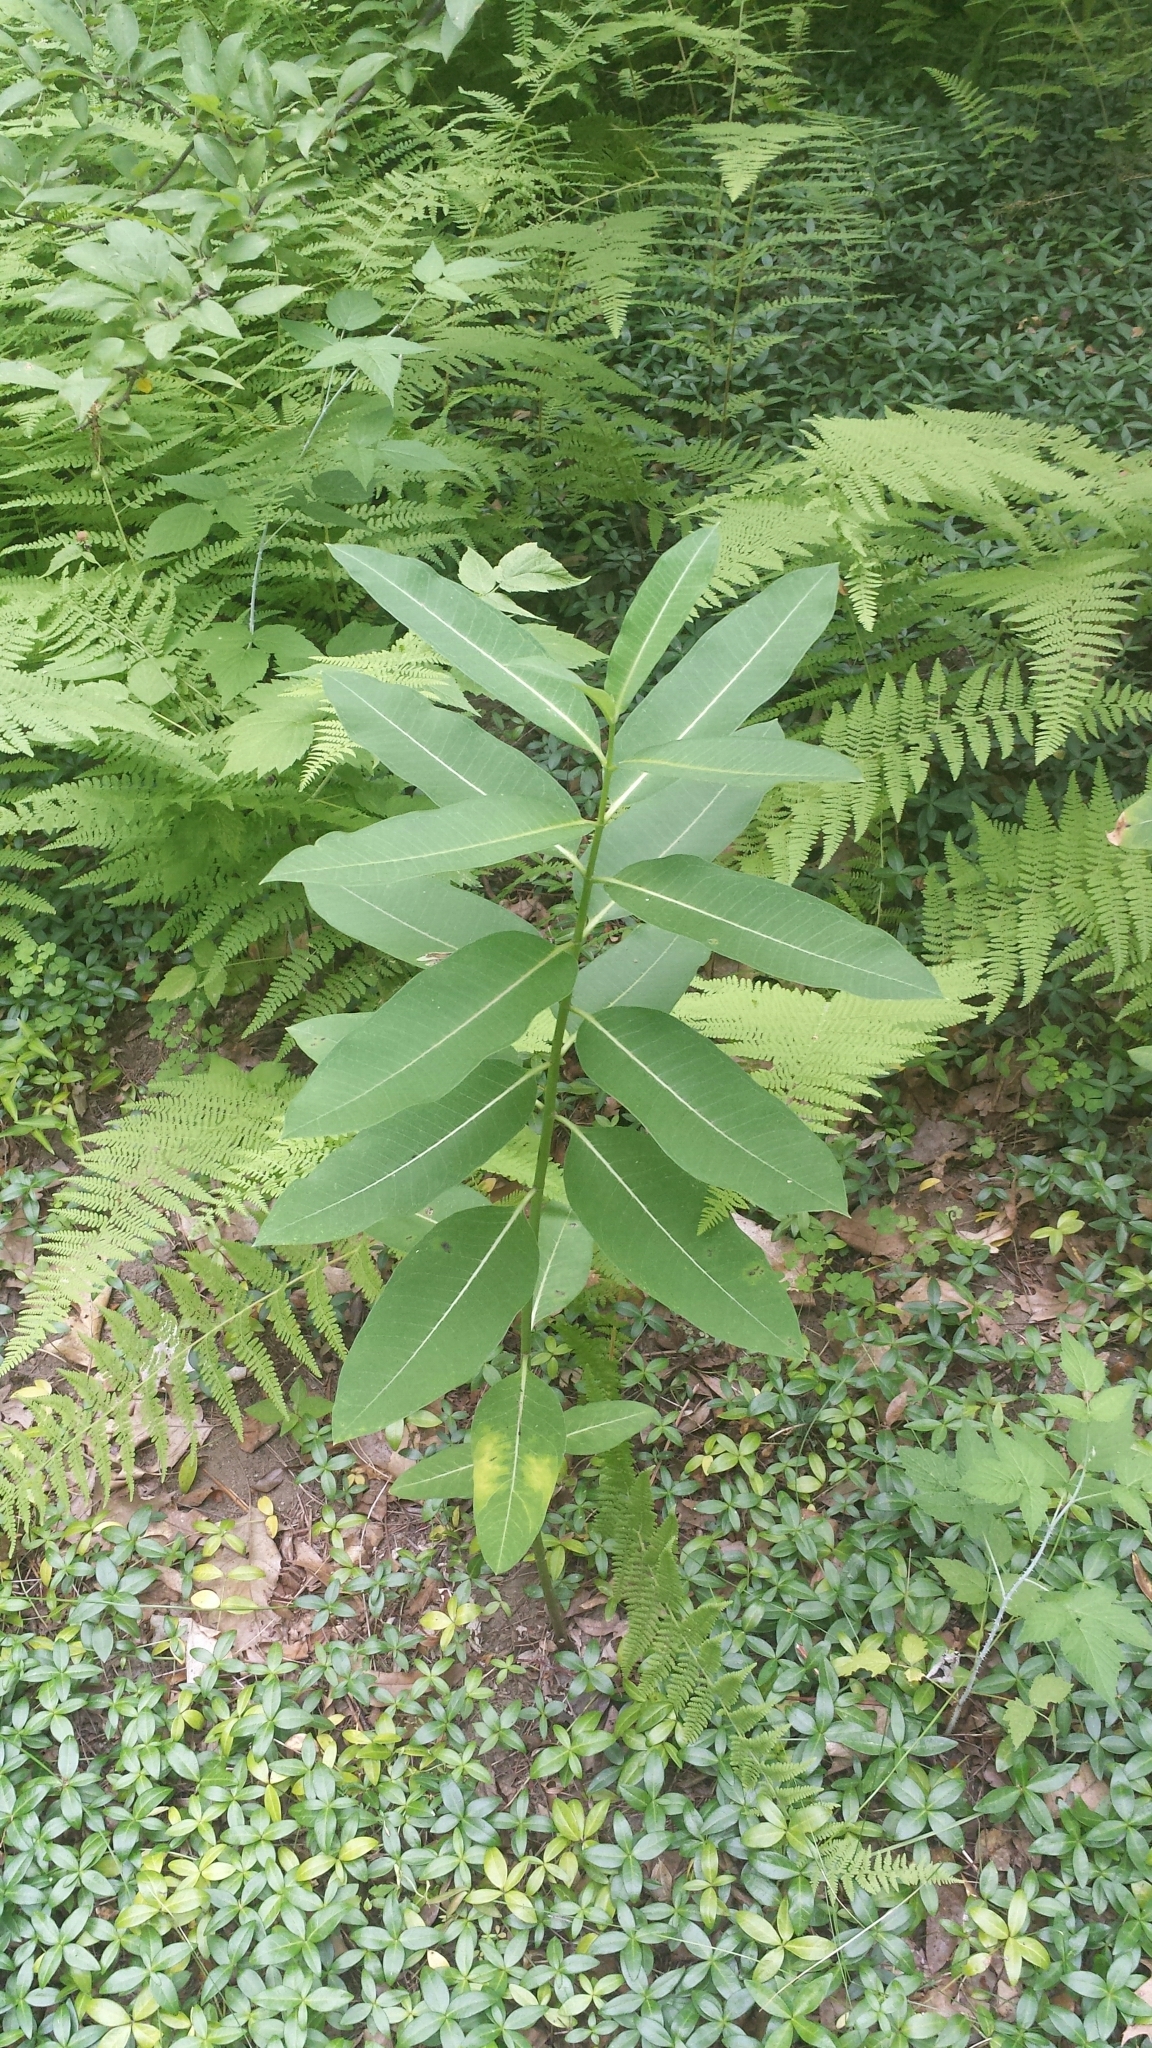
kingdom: Plantae
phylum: Tracheophyta
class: Magnoliopsida
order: Gentianales
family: Apocynaceae
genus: Asclepias
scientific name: Asclepias syriaca
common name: Common milkweed
